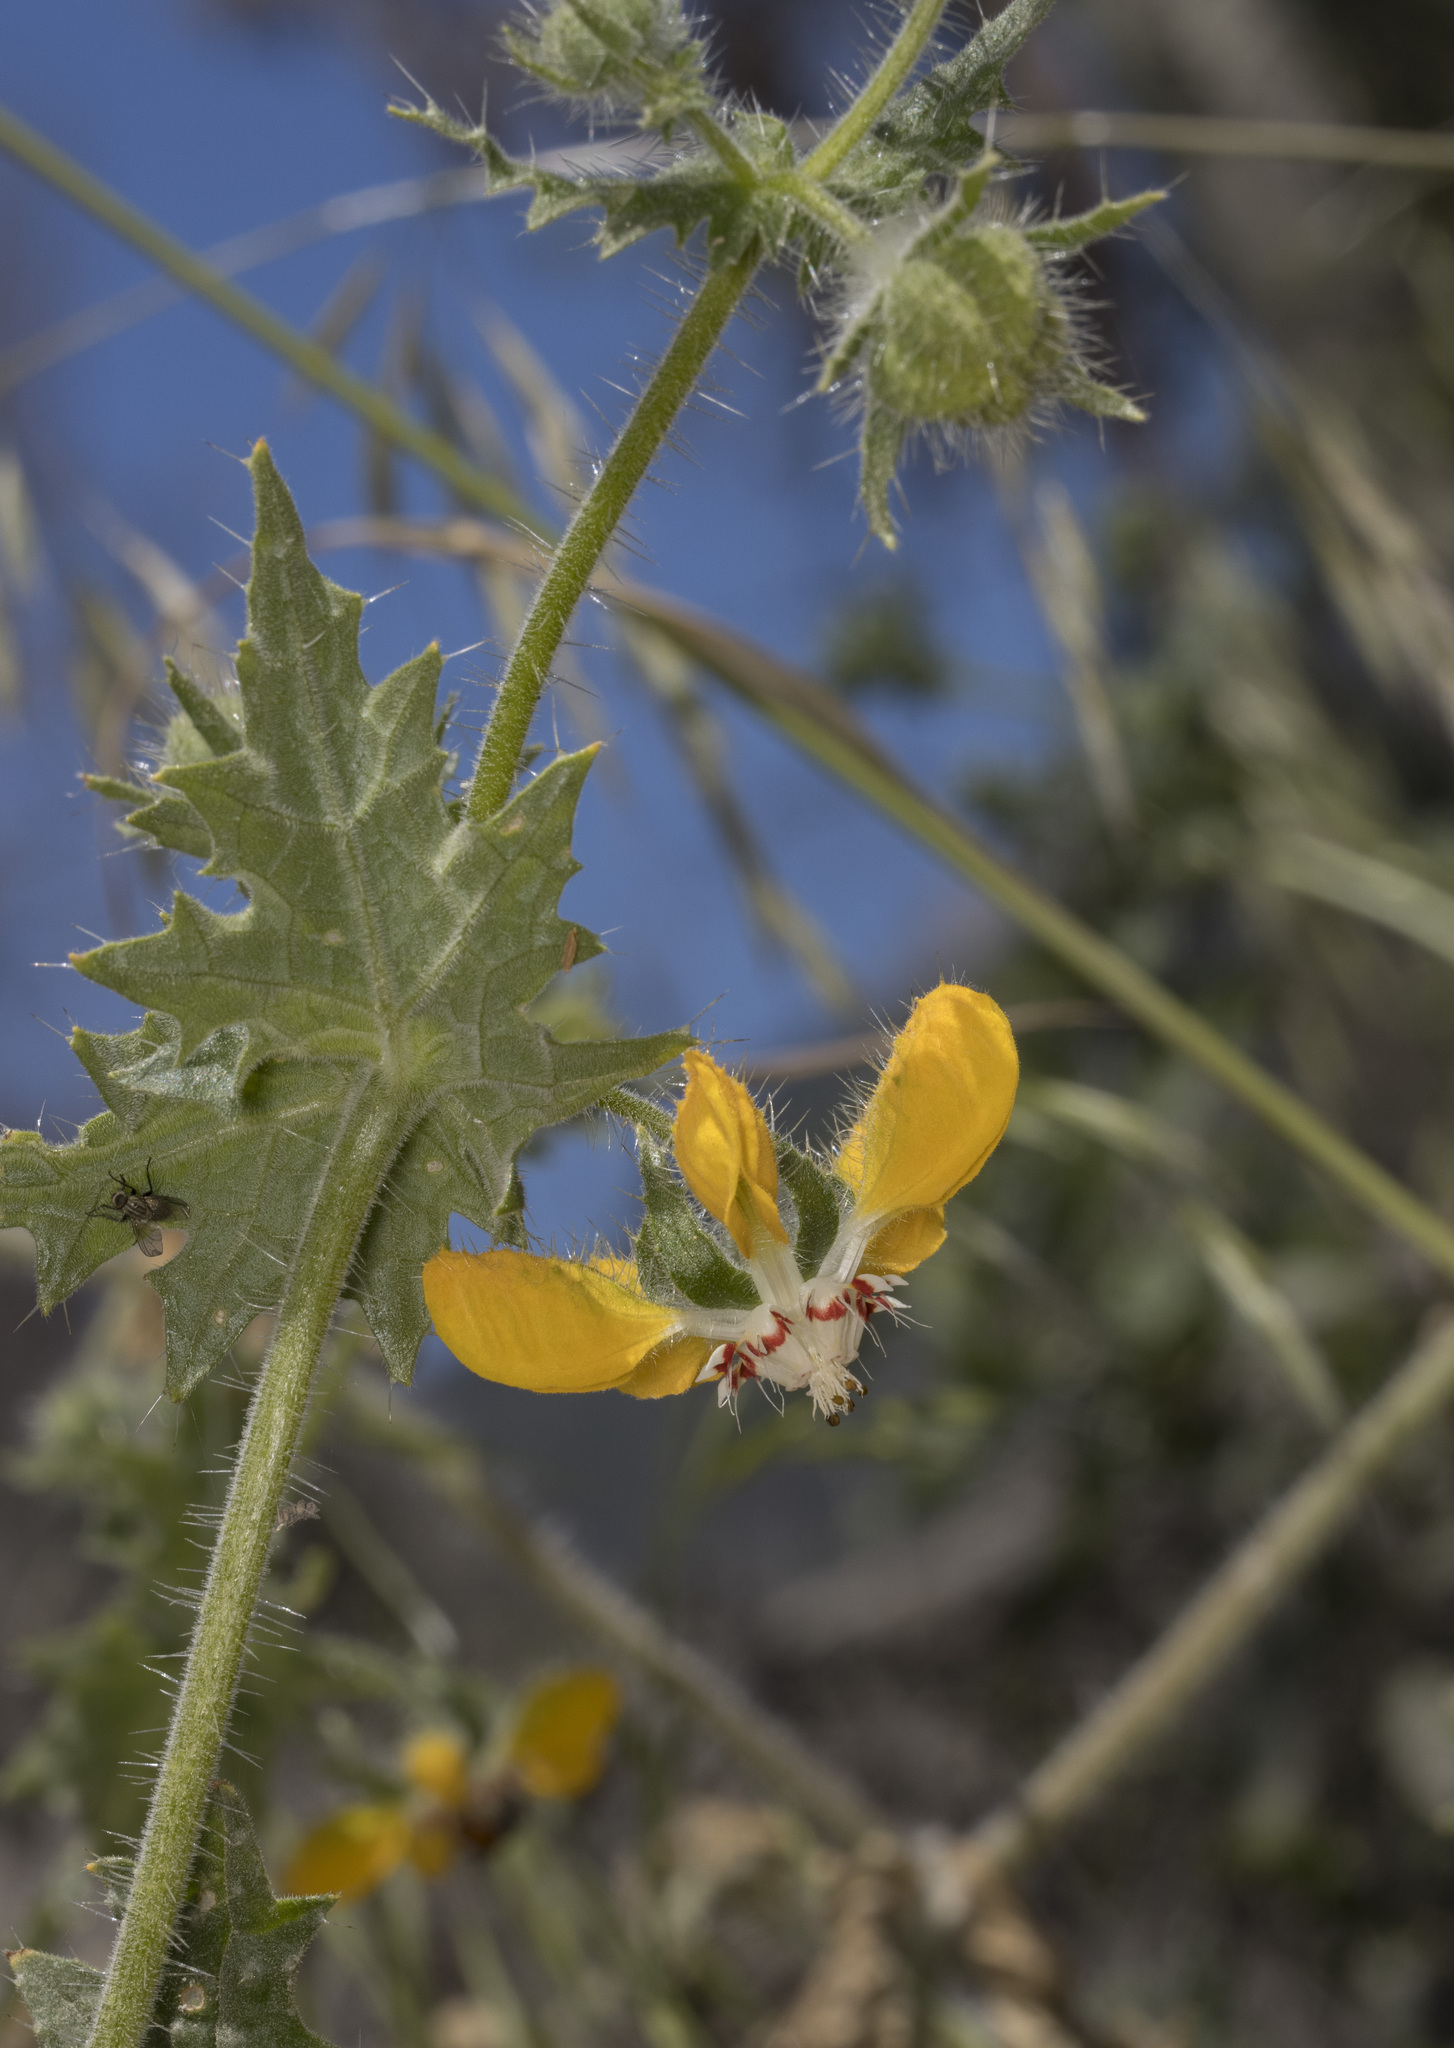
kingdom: Plantae
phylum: Tracheophyta
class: Magnoliopsida
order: Cornales
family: Loasaceae
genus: Loasa
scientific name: Loasa placei
